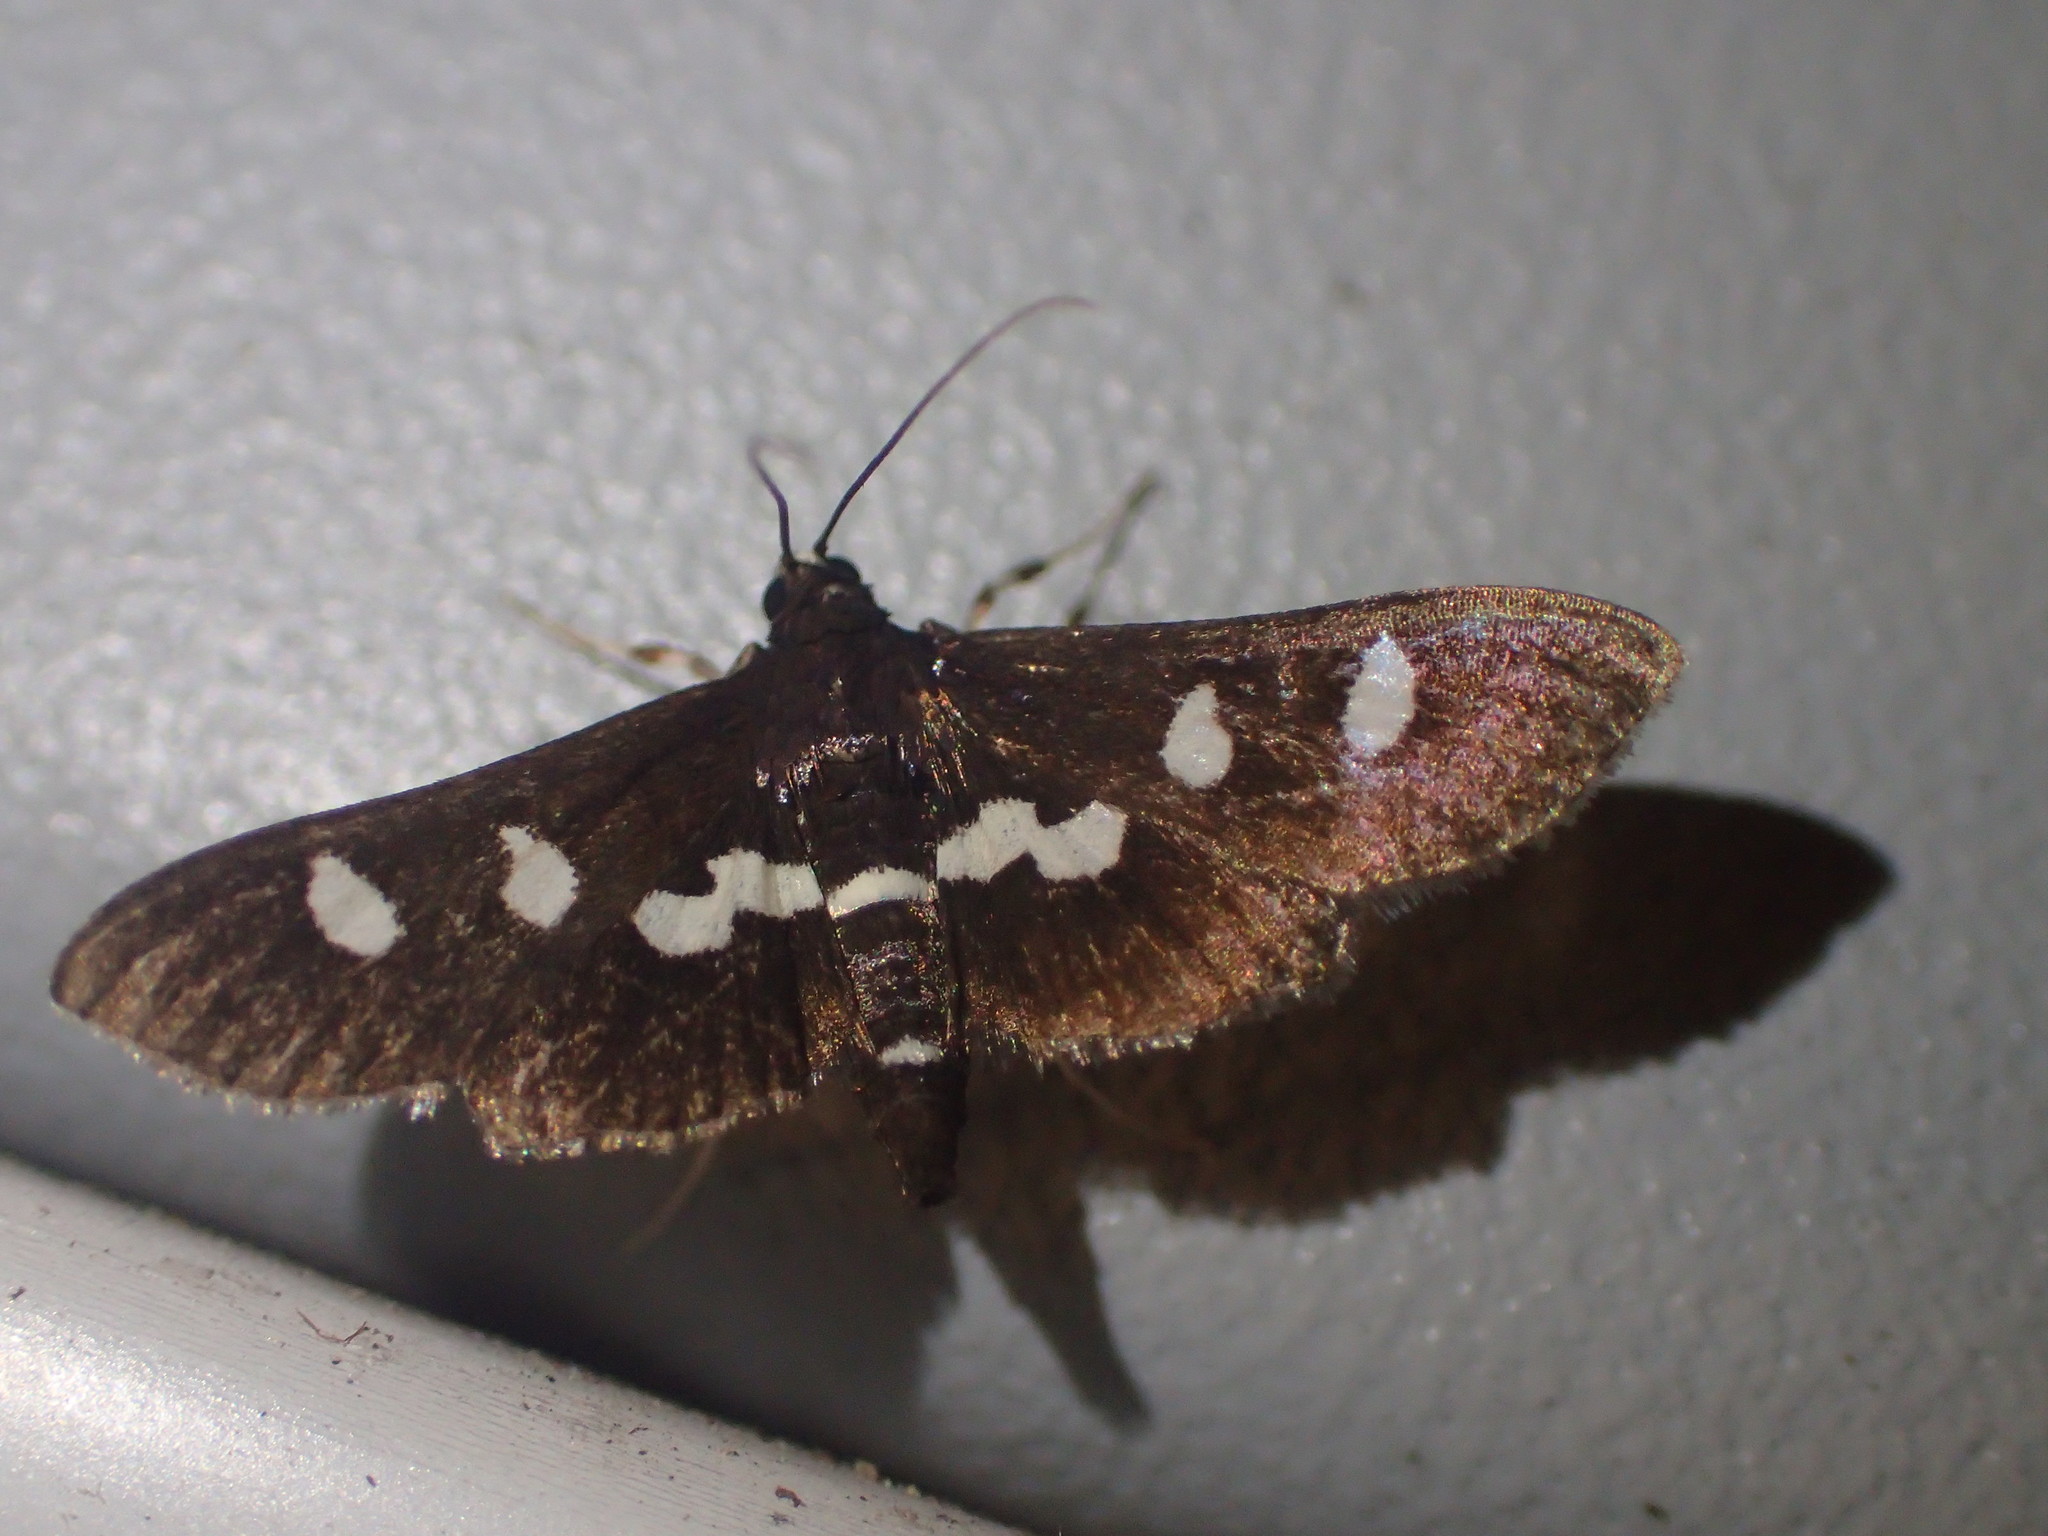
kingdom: Animalia
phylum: Arthropoda
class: Insecta
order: Lepidoptera
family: Crambidae
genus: Desmia
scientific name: Desmia
